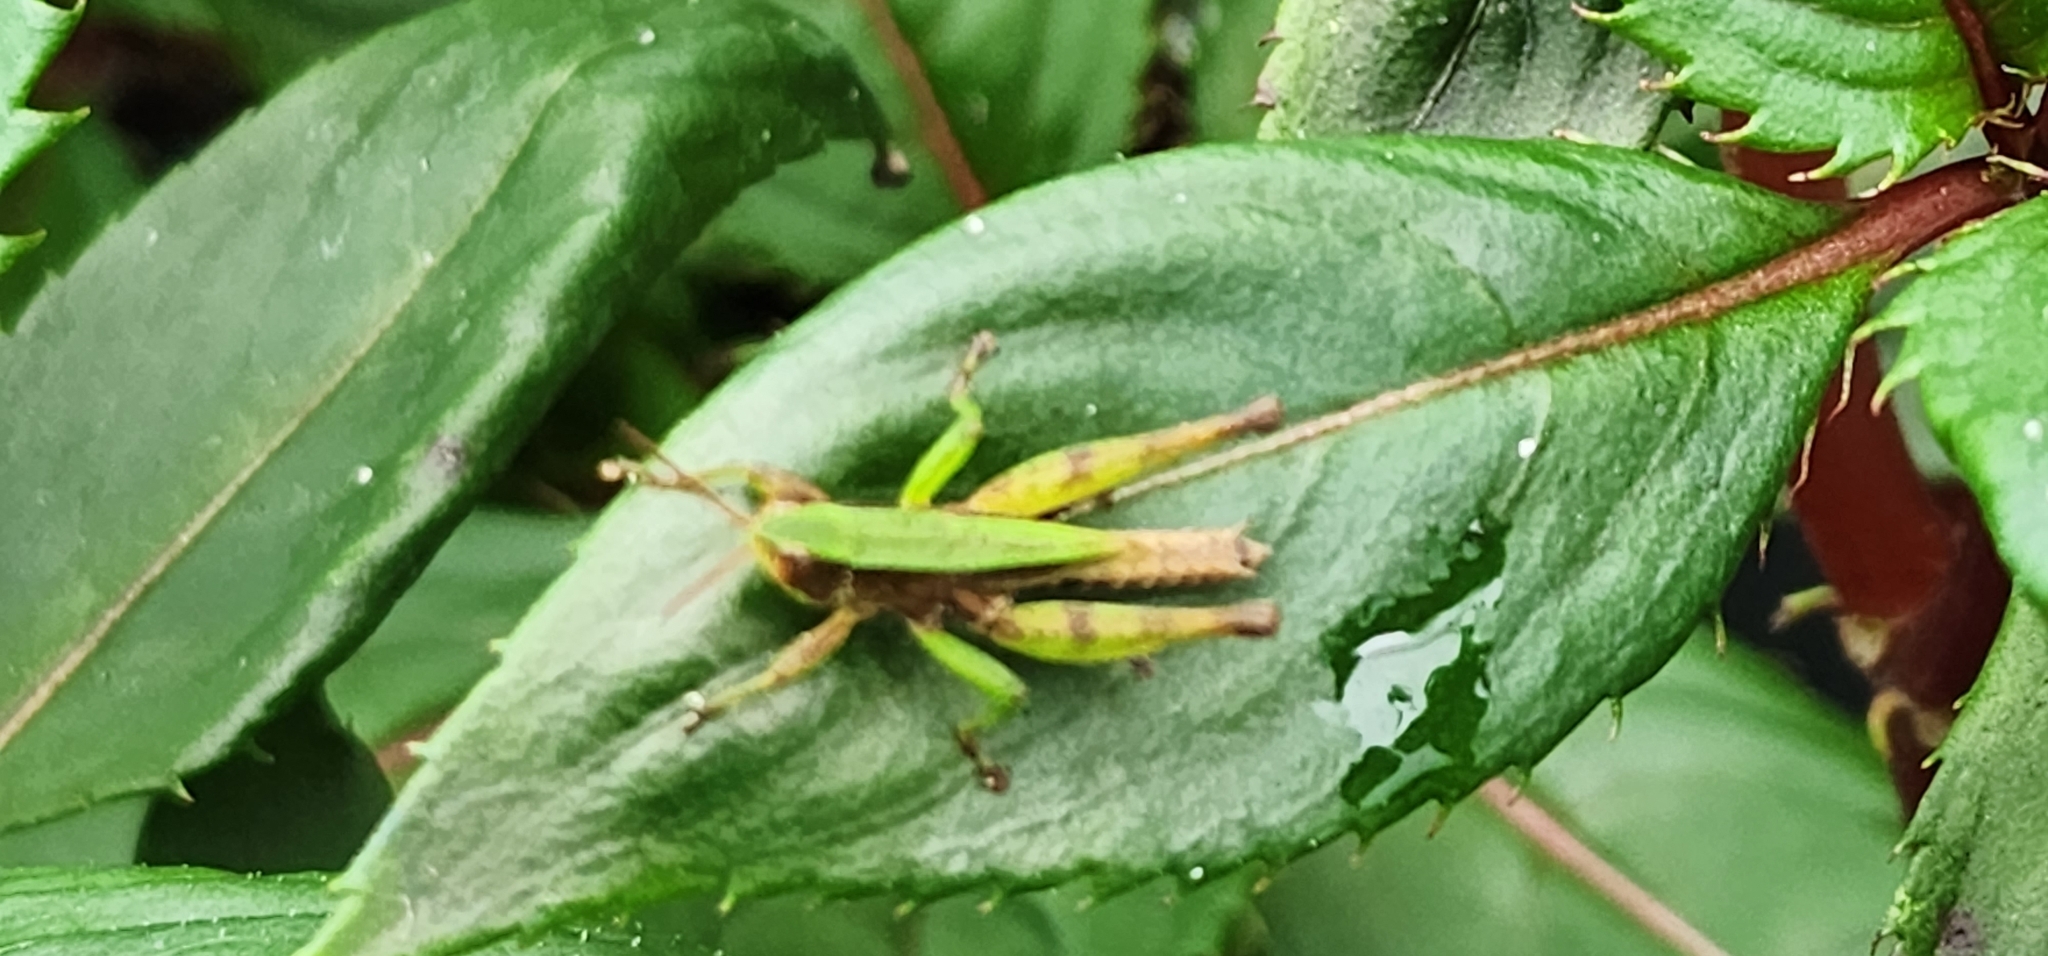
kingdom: Animalia
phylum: Arthropoda
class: Insecta
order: Orthoptera
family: Acrididae
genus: Dichromorpha
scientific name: Dichromorpha viridis
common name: Short-winged green grasshopper
